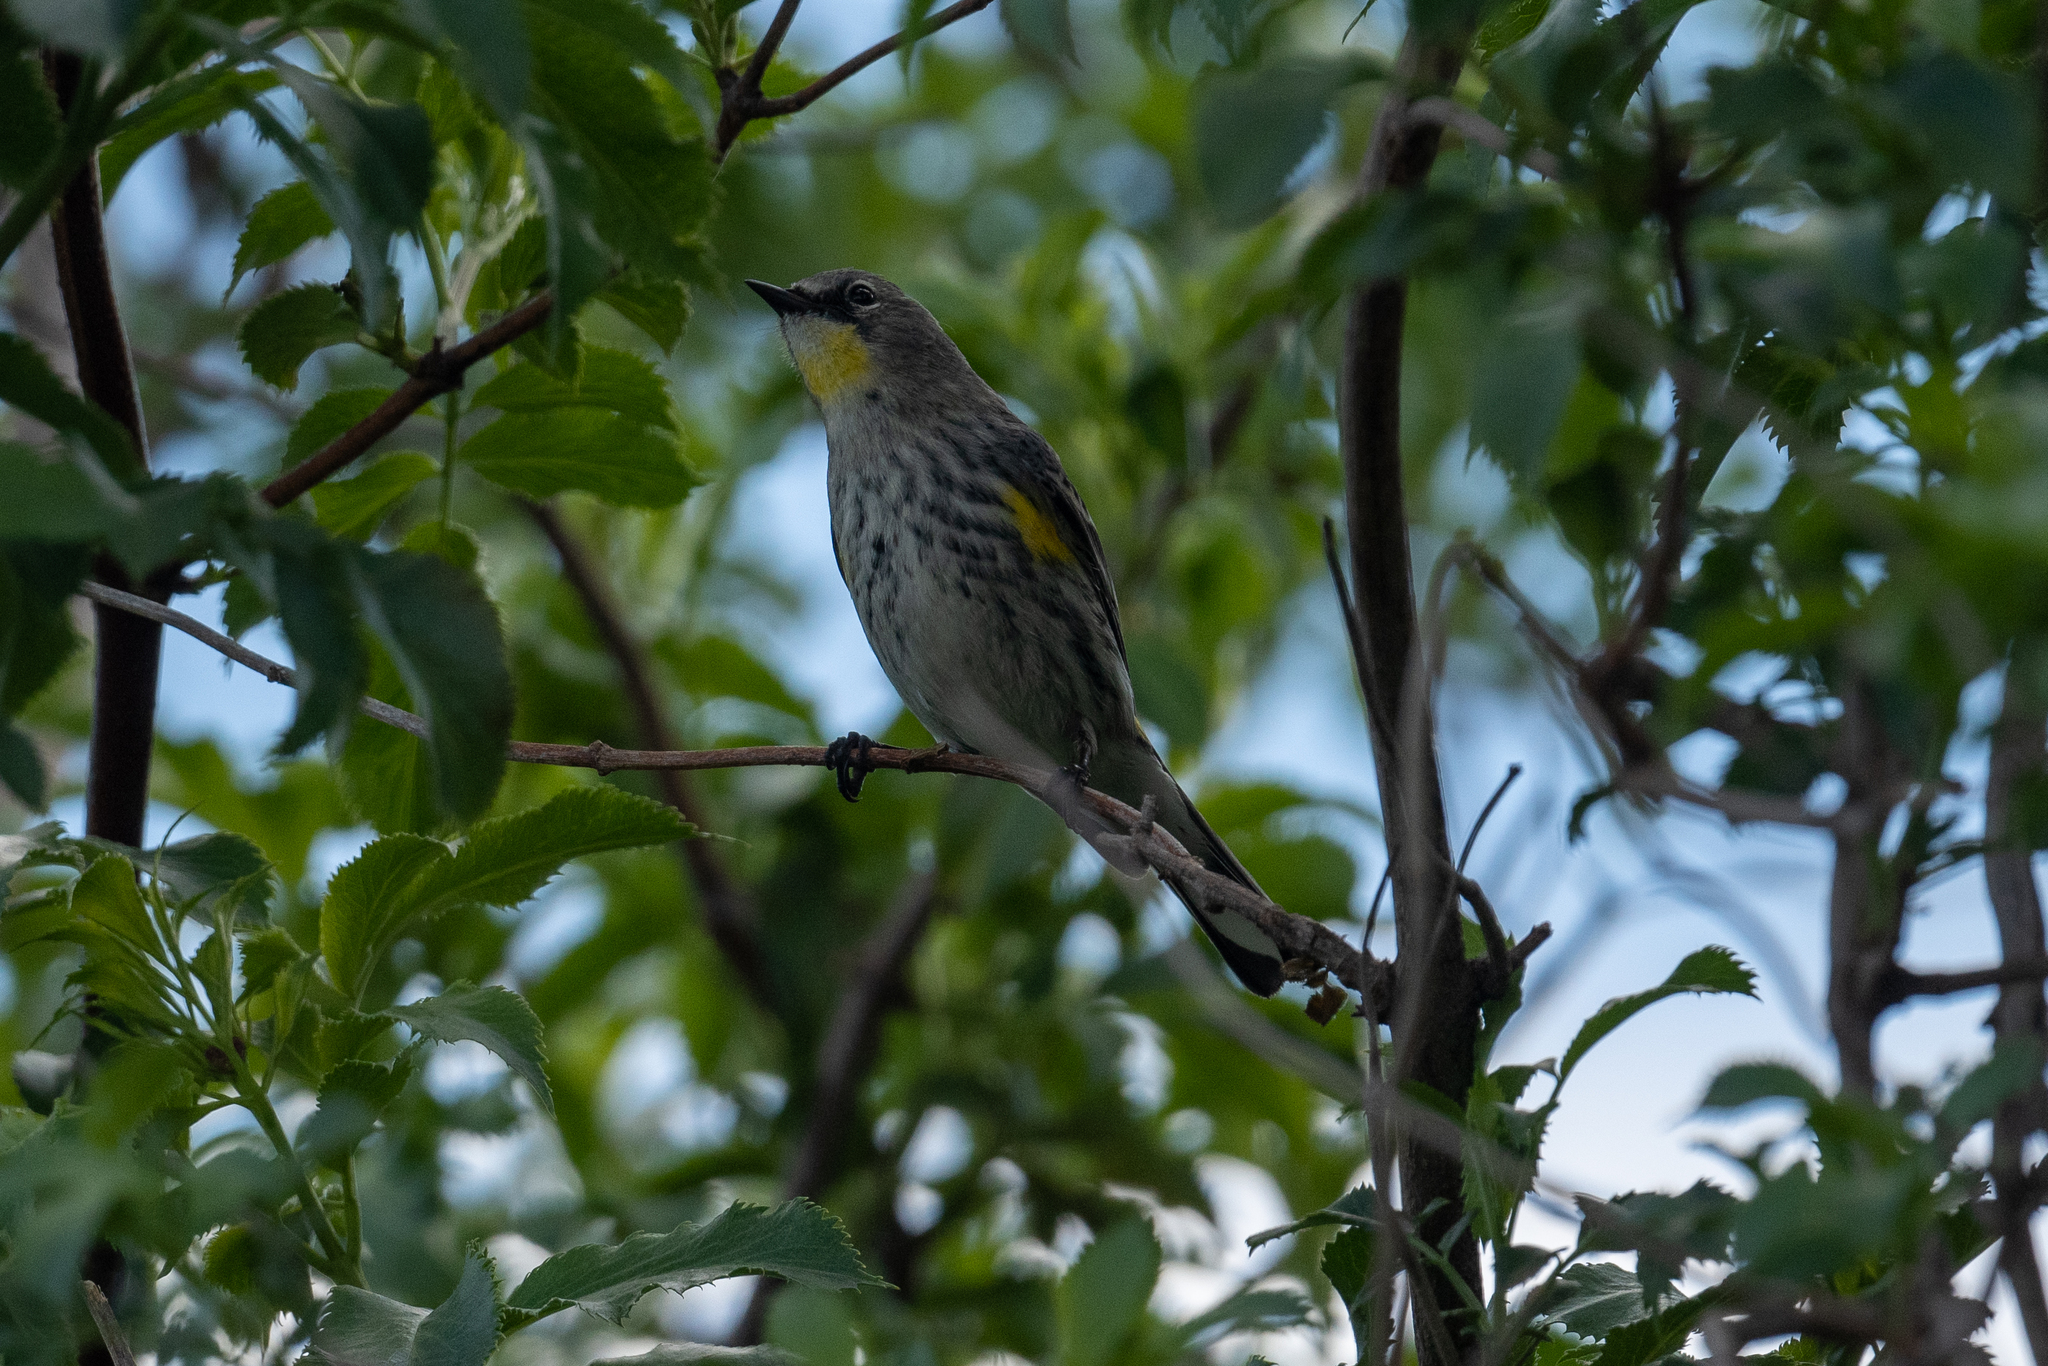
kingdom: Animalia
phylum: Chordata
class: Aves
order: Passeriformes
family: Parulidae
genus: Setophaga
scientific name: Setophaga coronata
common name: Myrtle warbler
